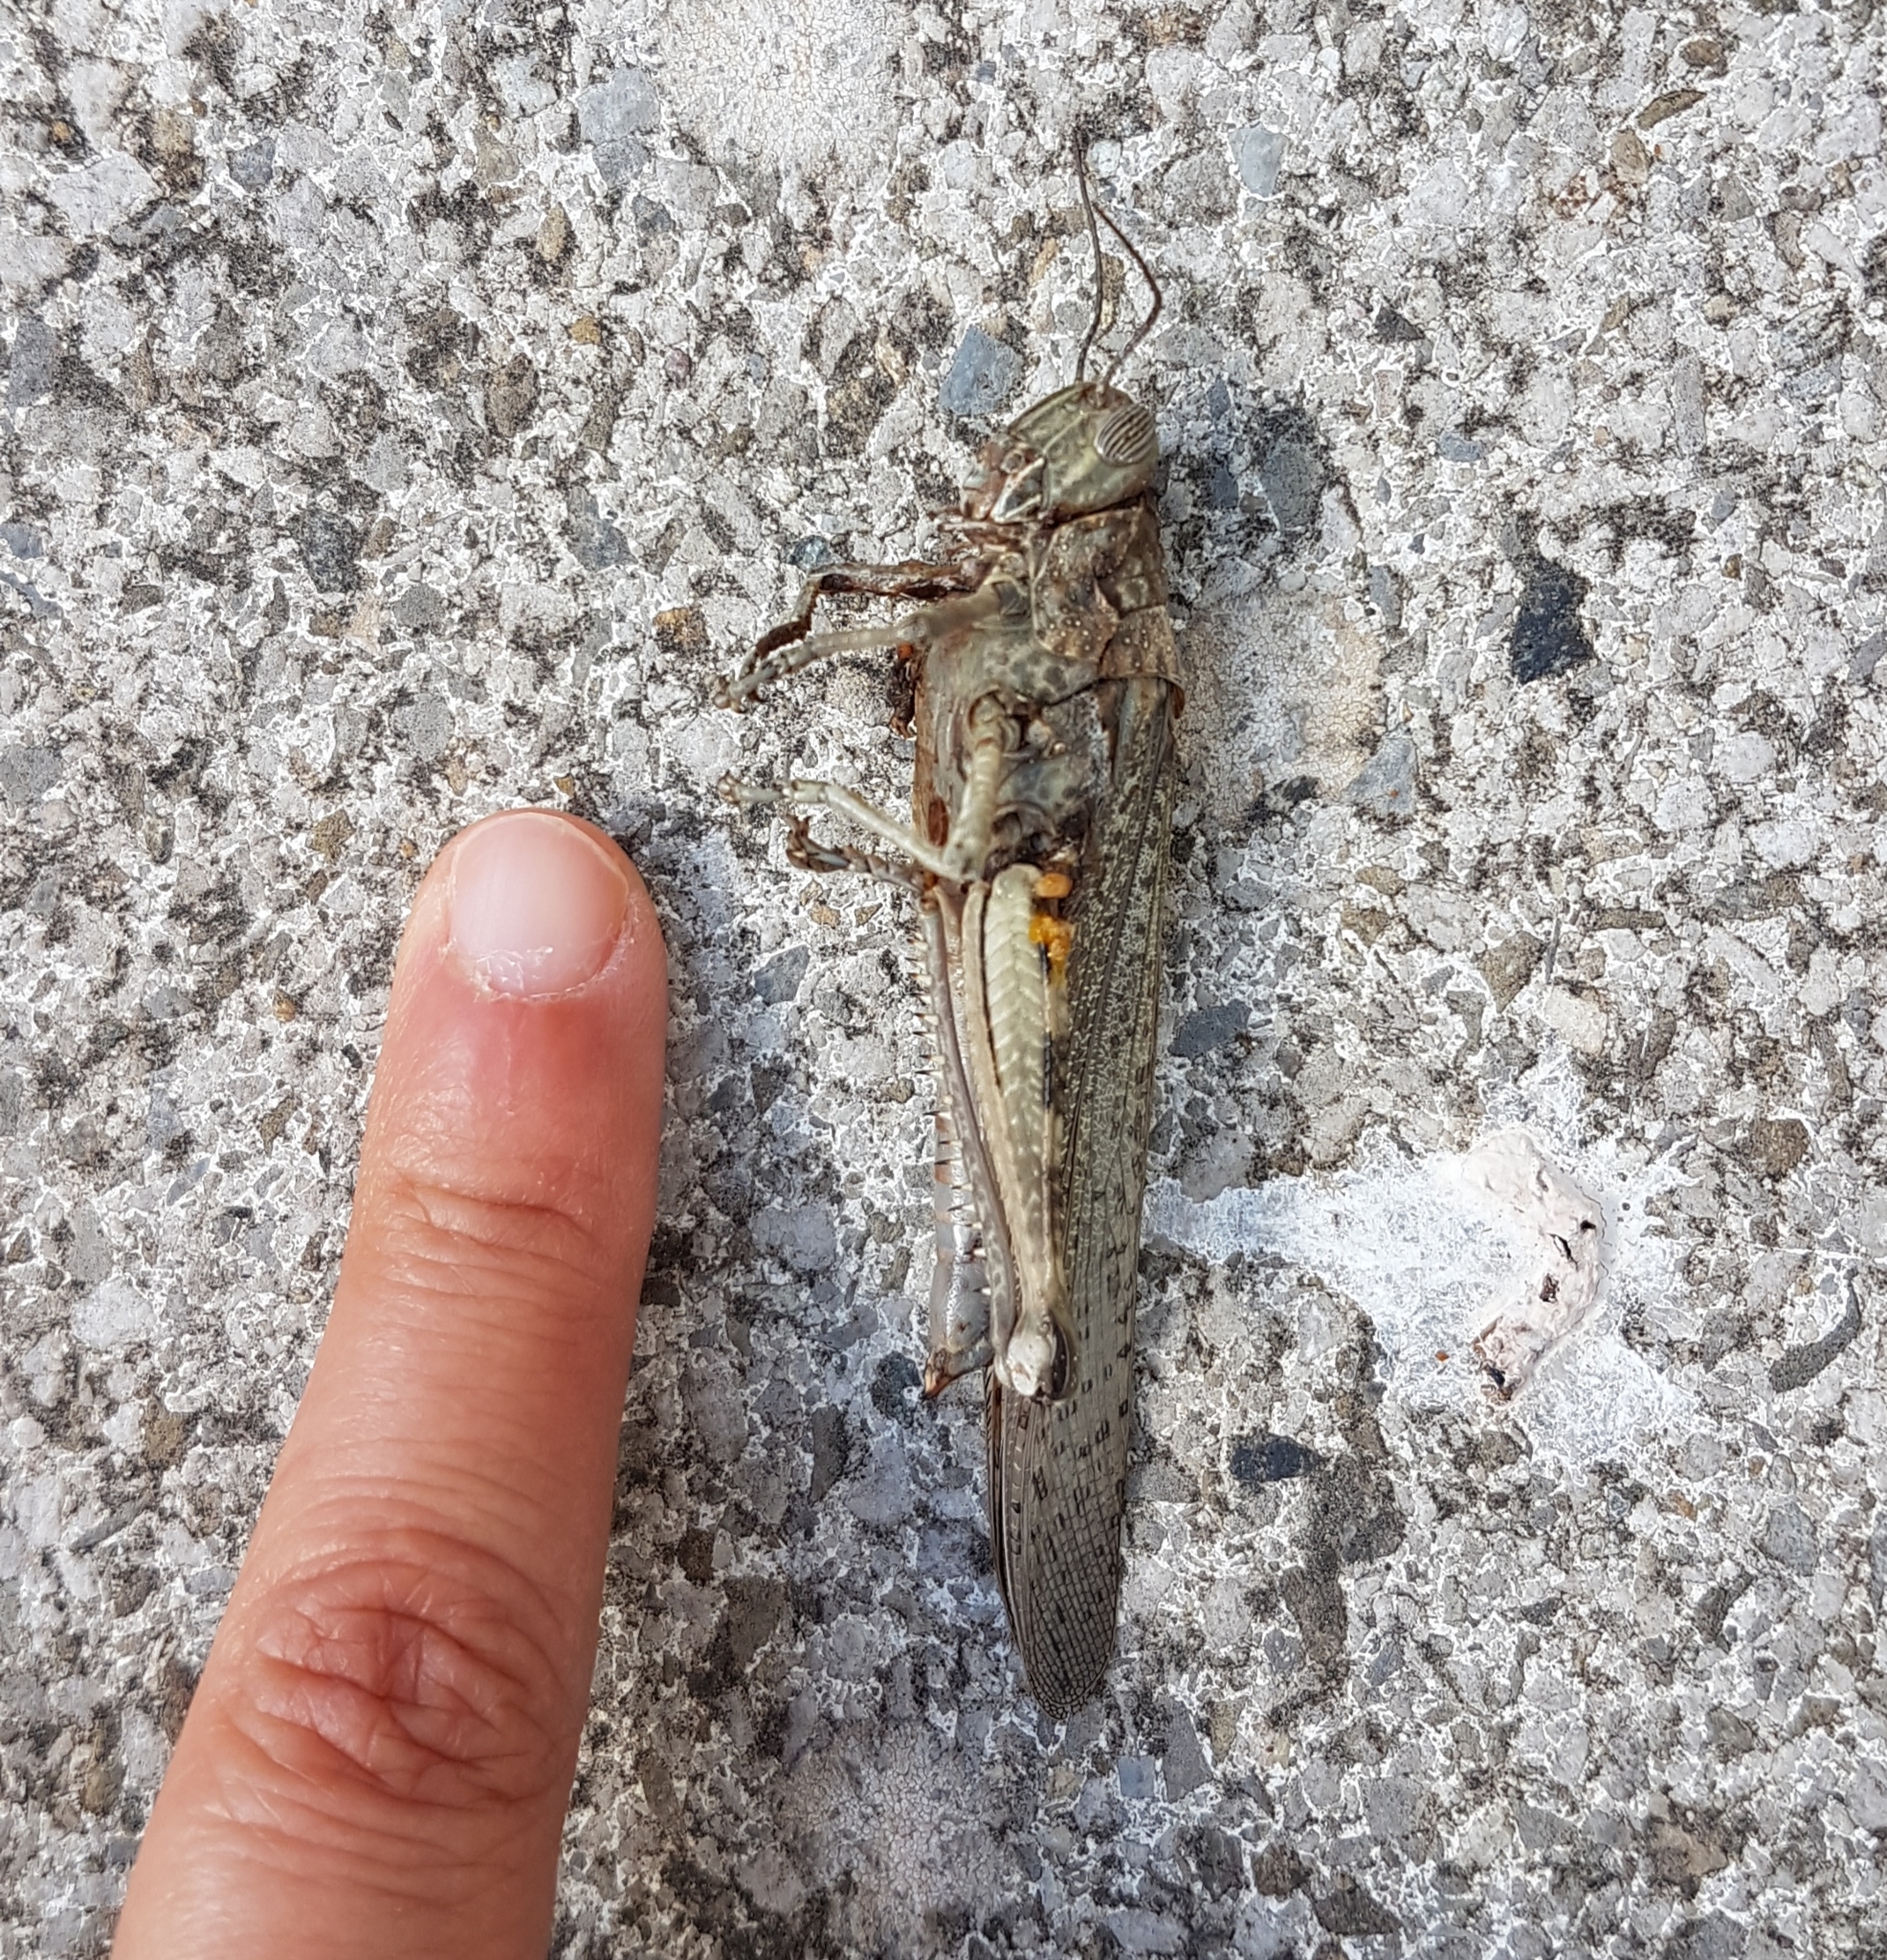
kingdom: Animalia
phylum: Arthropoda
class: Insecta
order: Orthoptera
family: Acrididae
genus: Anacridium
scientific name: Anacridium aegyptium
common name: Egyptian grasshopper
